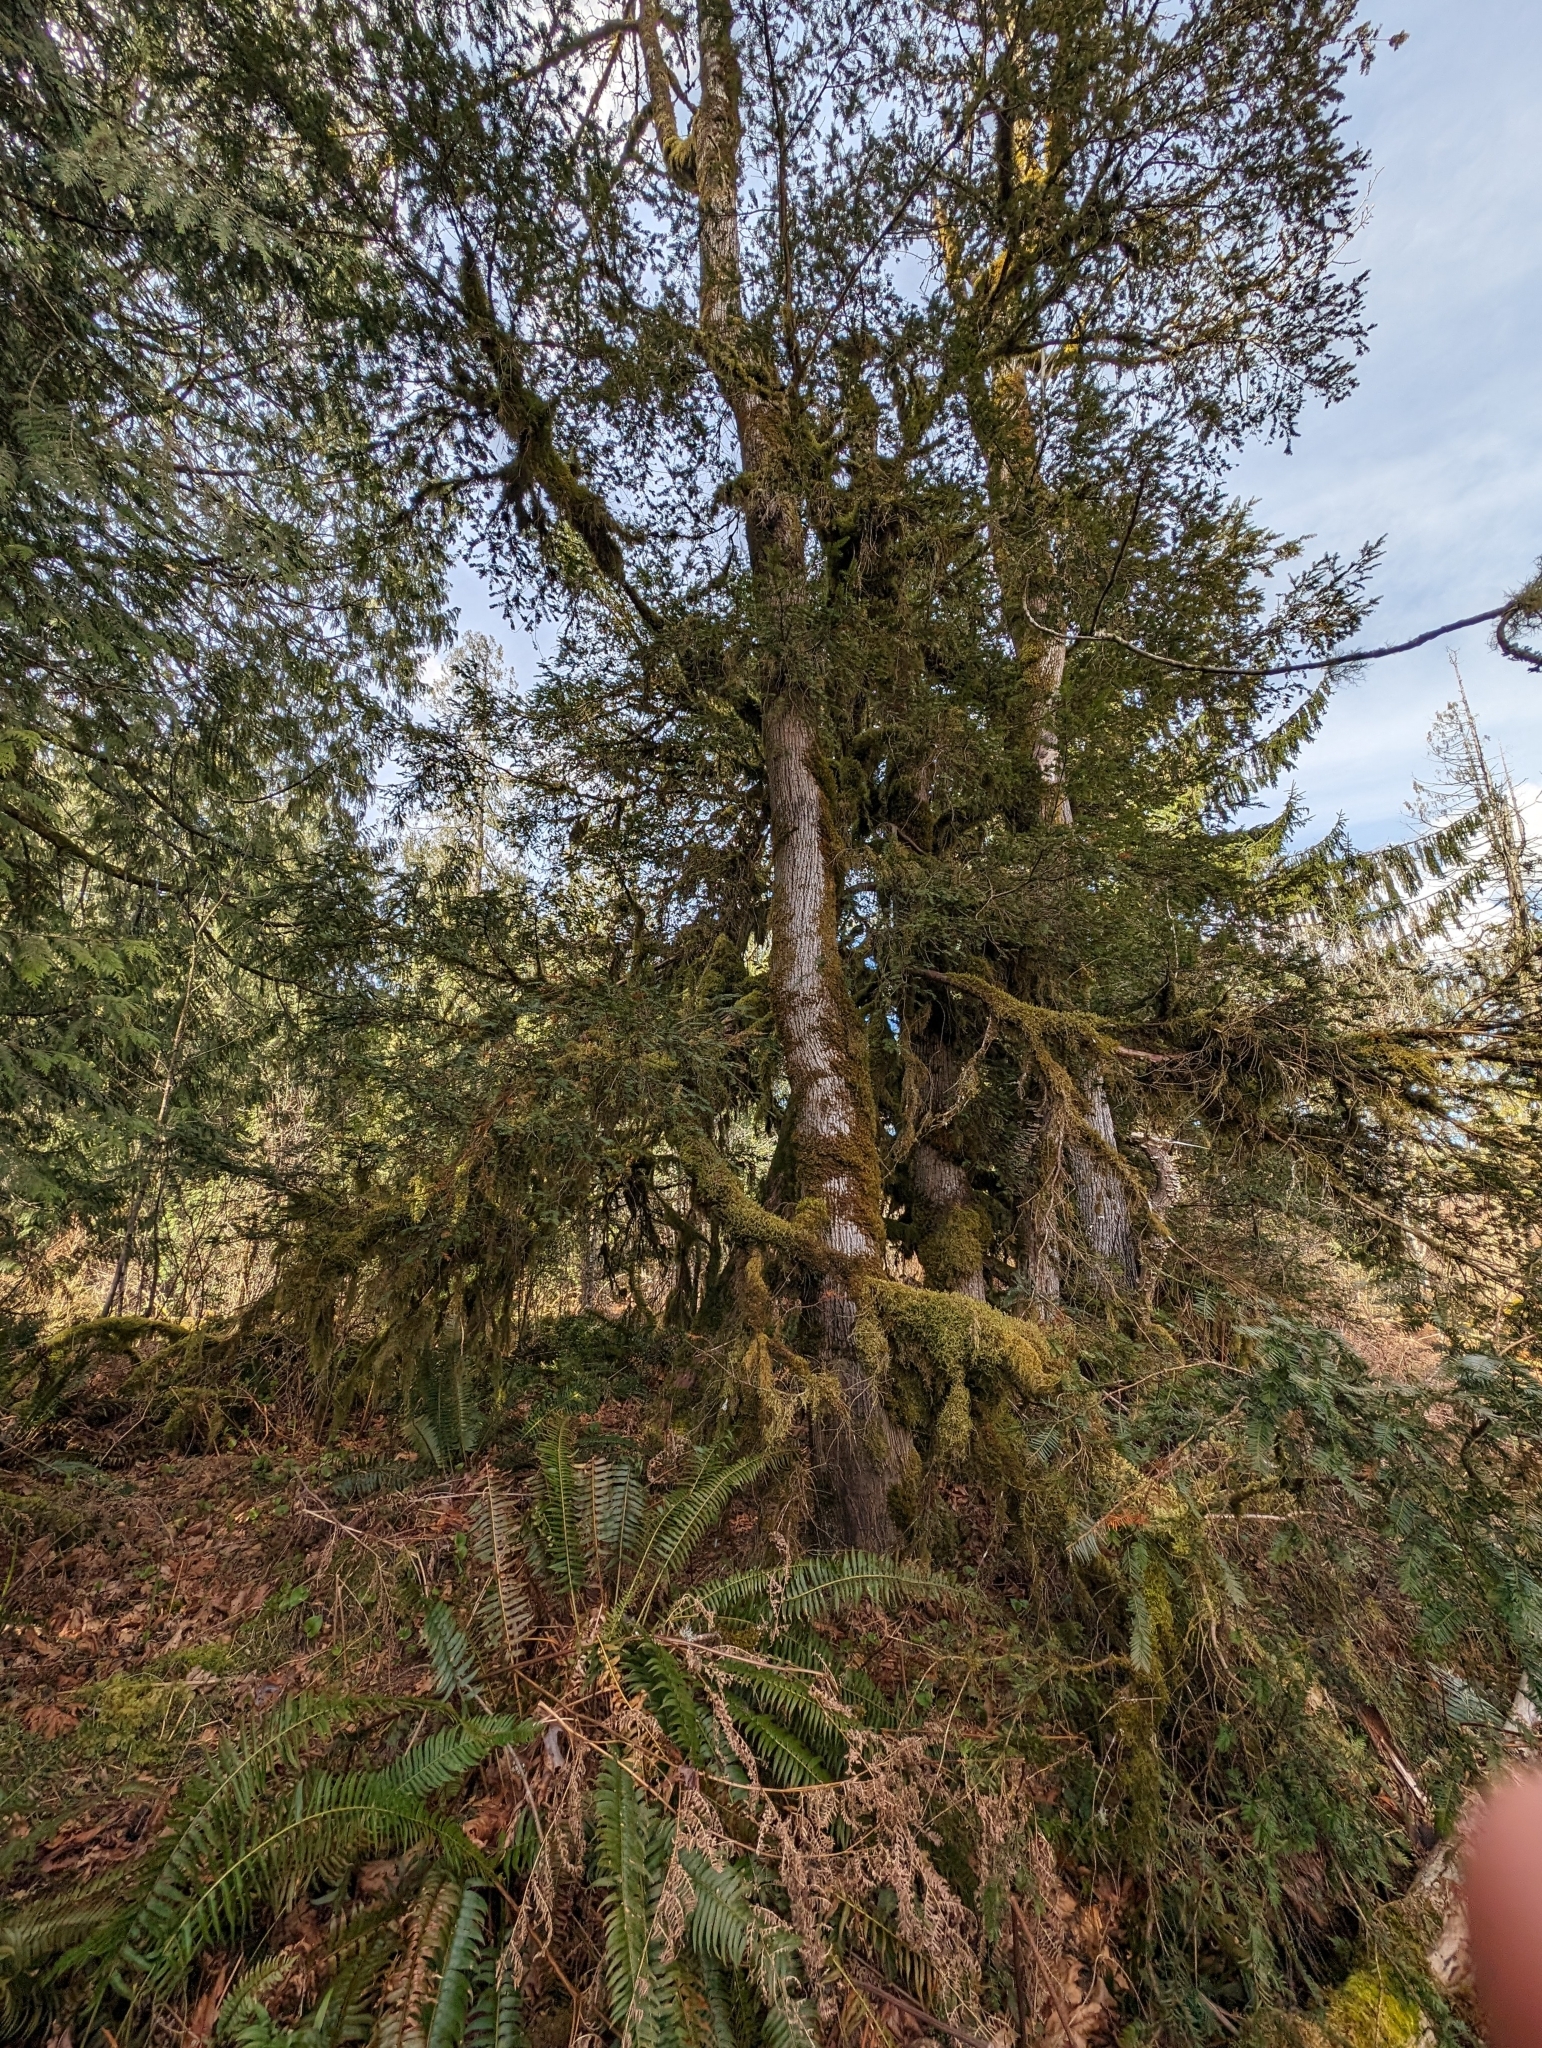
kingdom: Plantae
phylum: Tracheophyta
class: Pinopsida
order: Pinales
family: Taxaceae
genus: Taxus
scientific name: Taxus brevifolia
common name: Pacific yew
